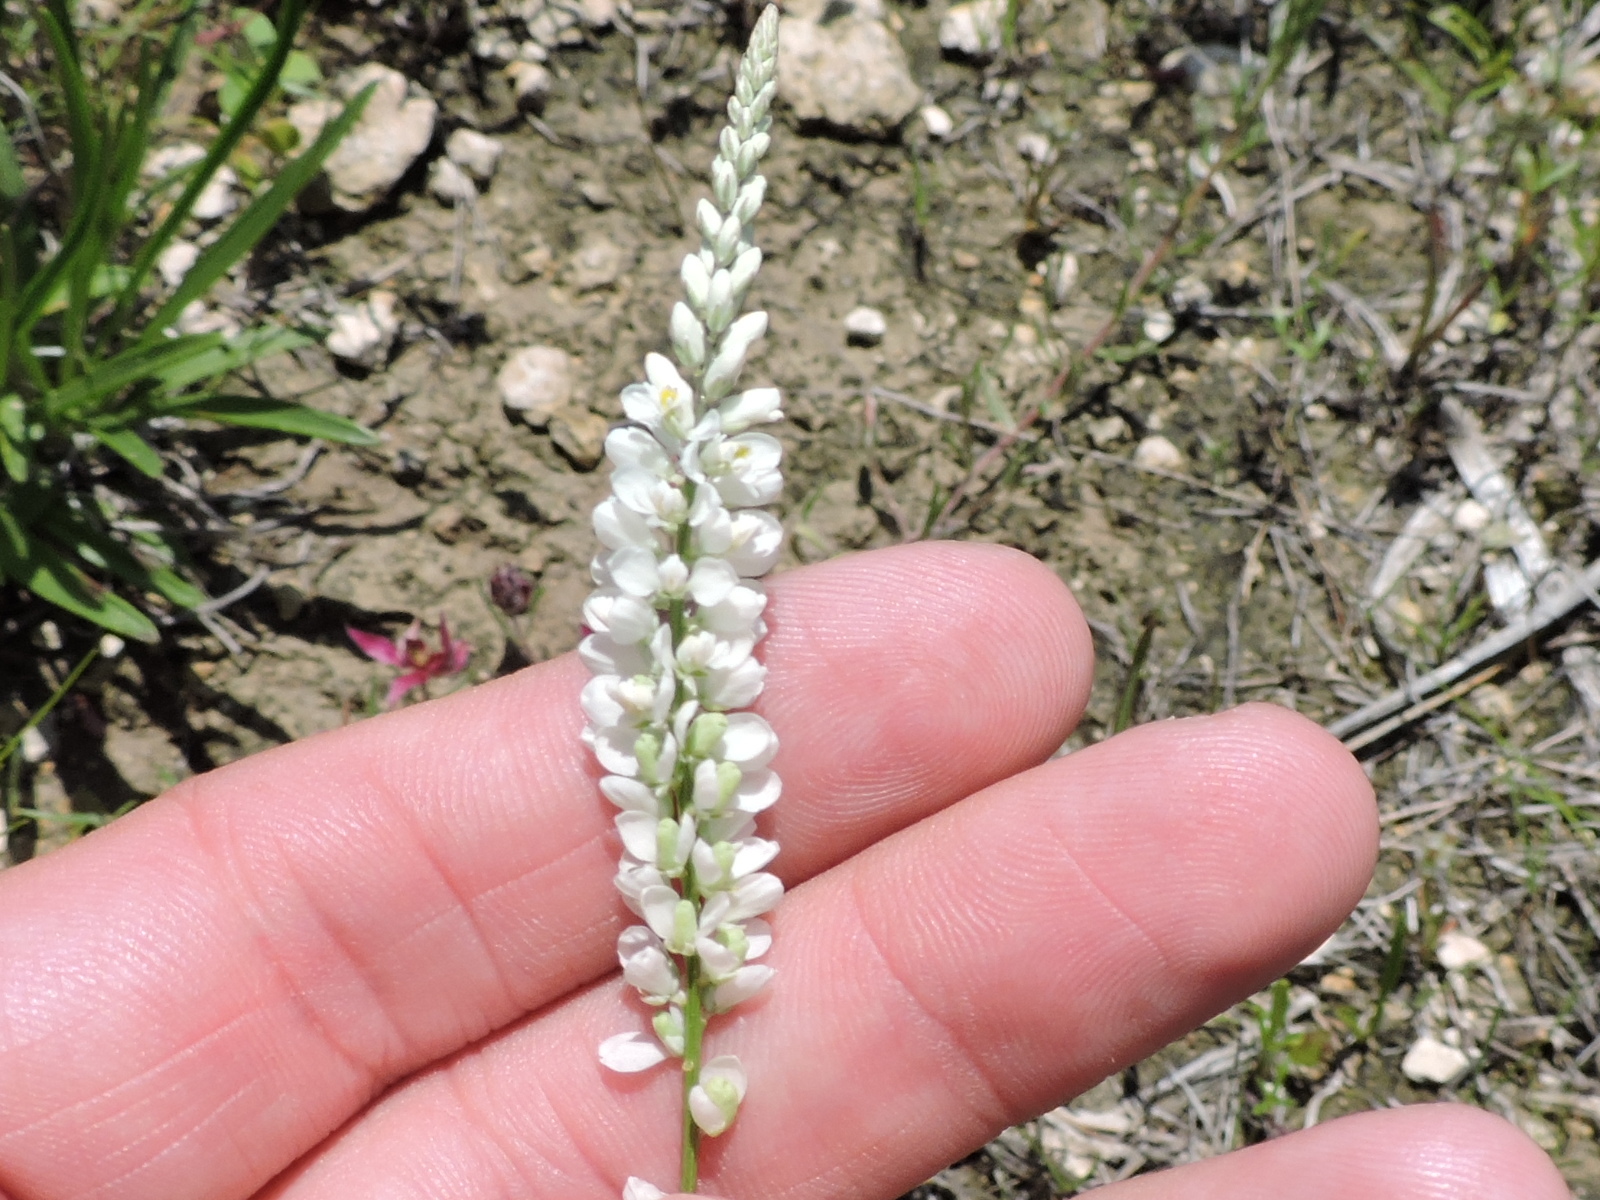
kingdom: Plantae
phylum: Tracheophyta
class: Magnoliopsida
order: Fabales
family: Polygalaceae
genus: Polygala
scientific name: Polygala alba
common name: White milkwort
